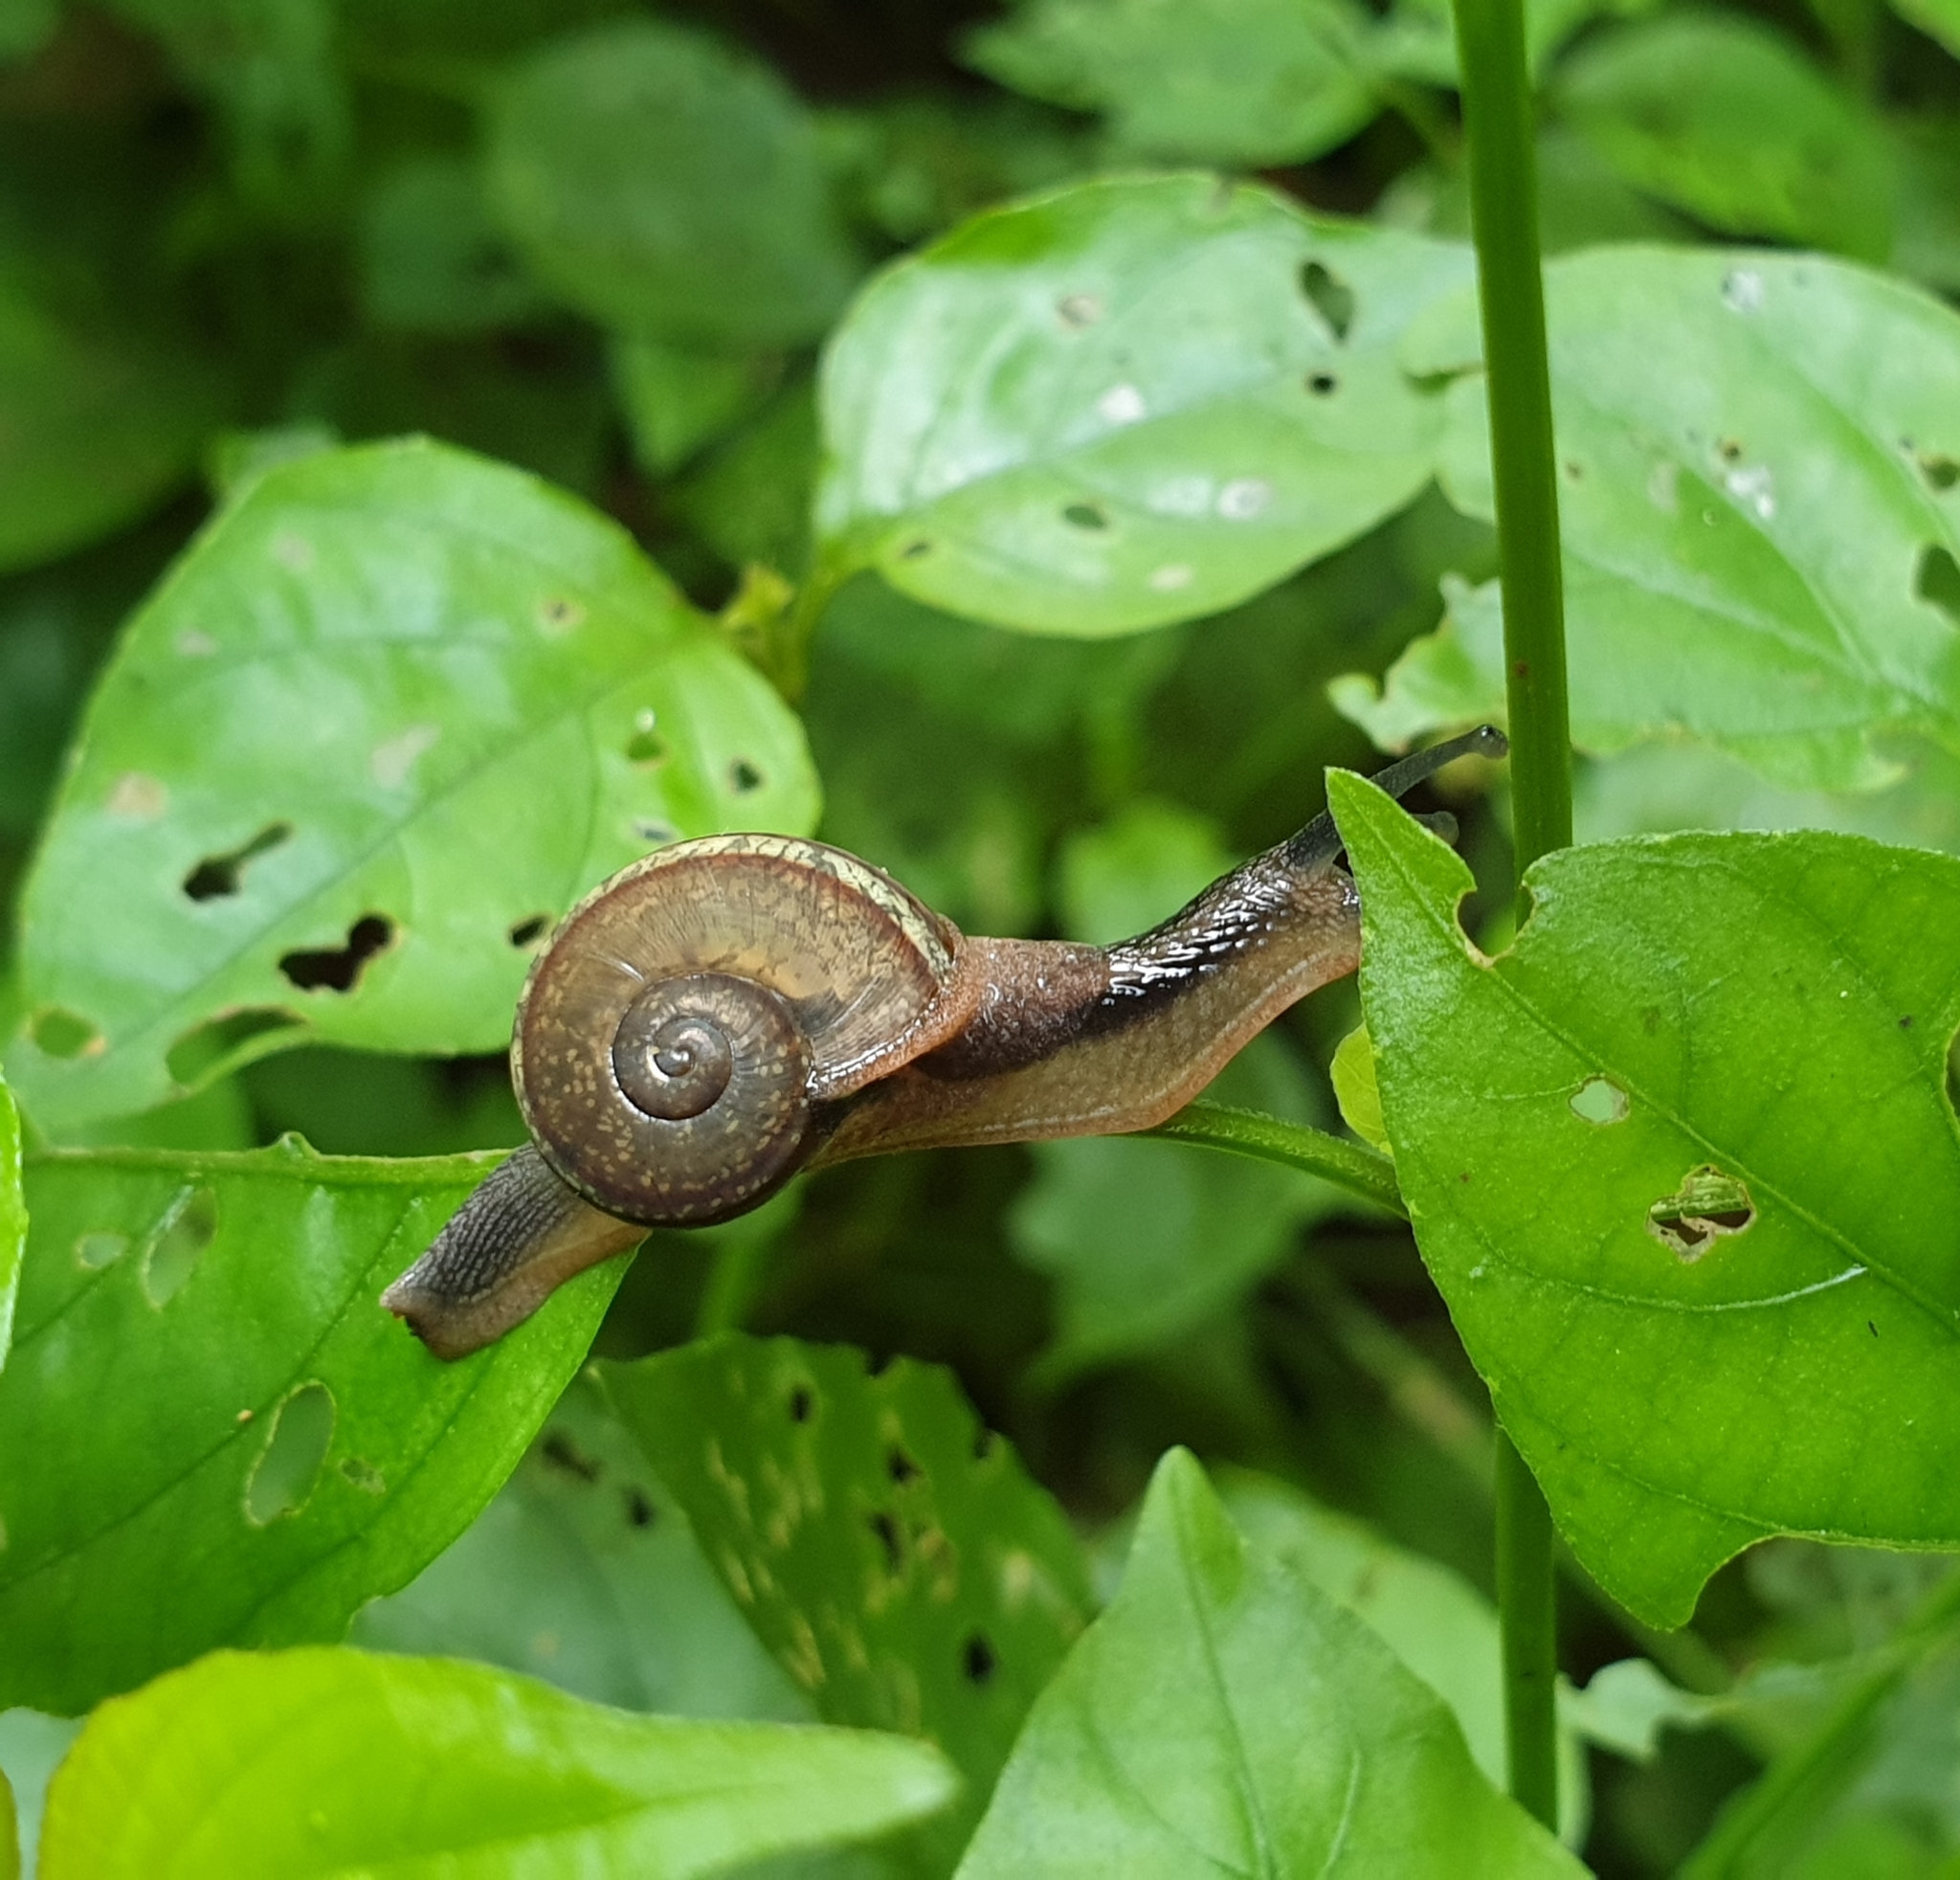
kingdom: Animalia
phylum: Mollusca
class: Gastropoda
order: Stylommatophora
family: Ariophantidae
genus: Ariophanta
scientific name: Ariophanta exilis
